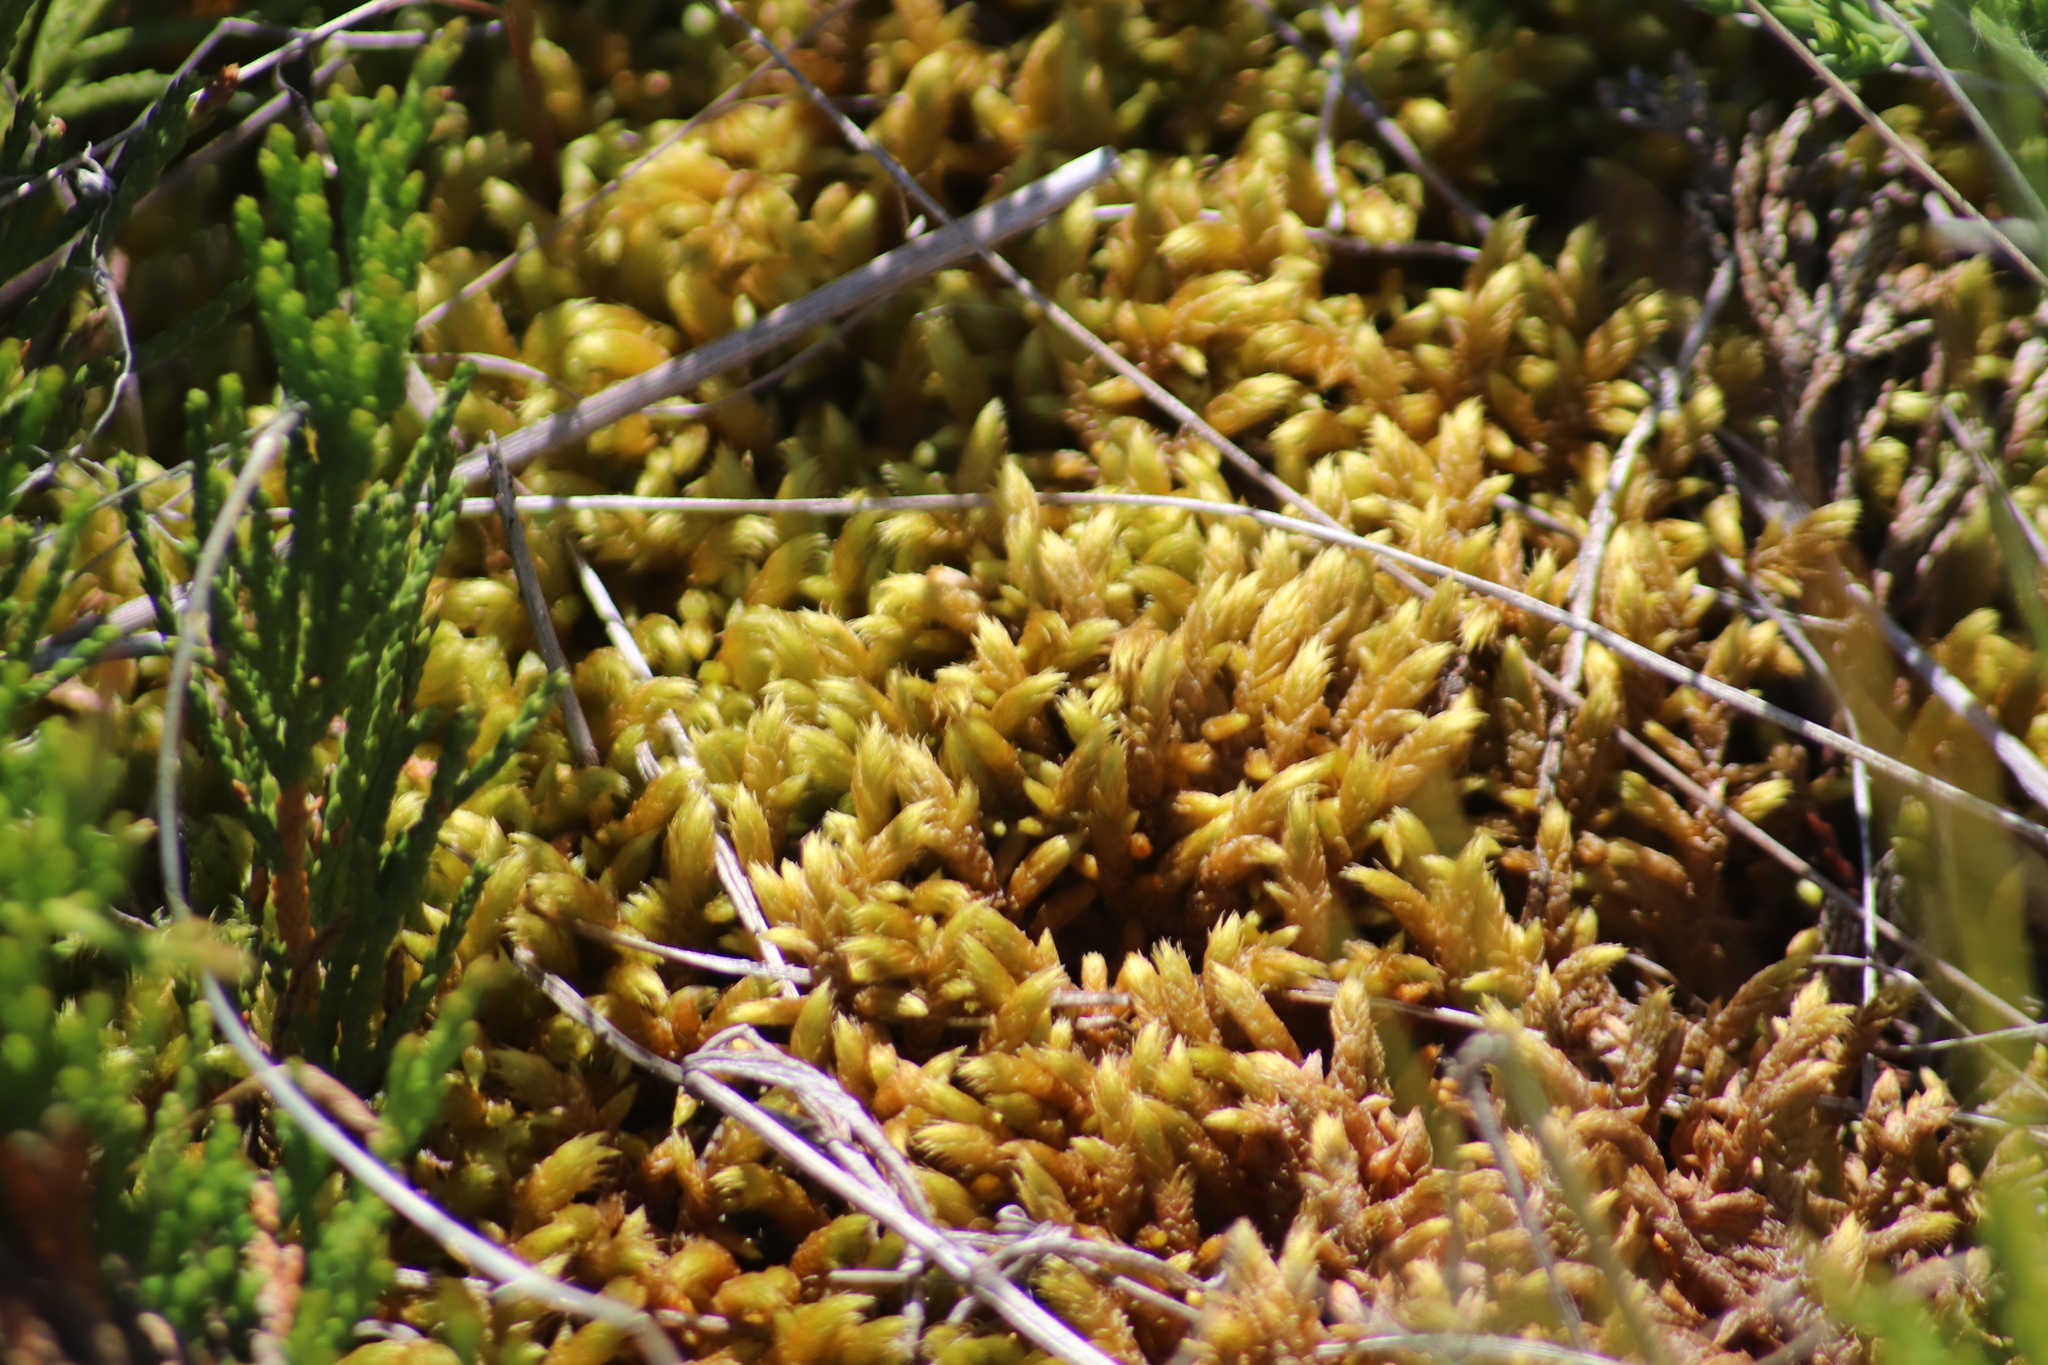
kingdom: Plantae
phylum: Bryophyta
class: Bryopsida
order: Hypnales
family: Rhytidiaceae
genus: Rhytidium
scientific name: Rhytidium rugosum
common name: Wrinkle-leaved moss
